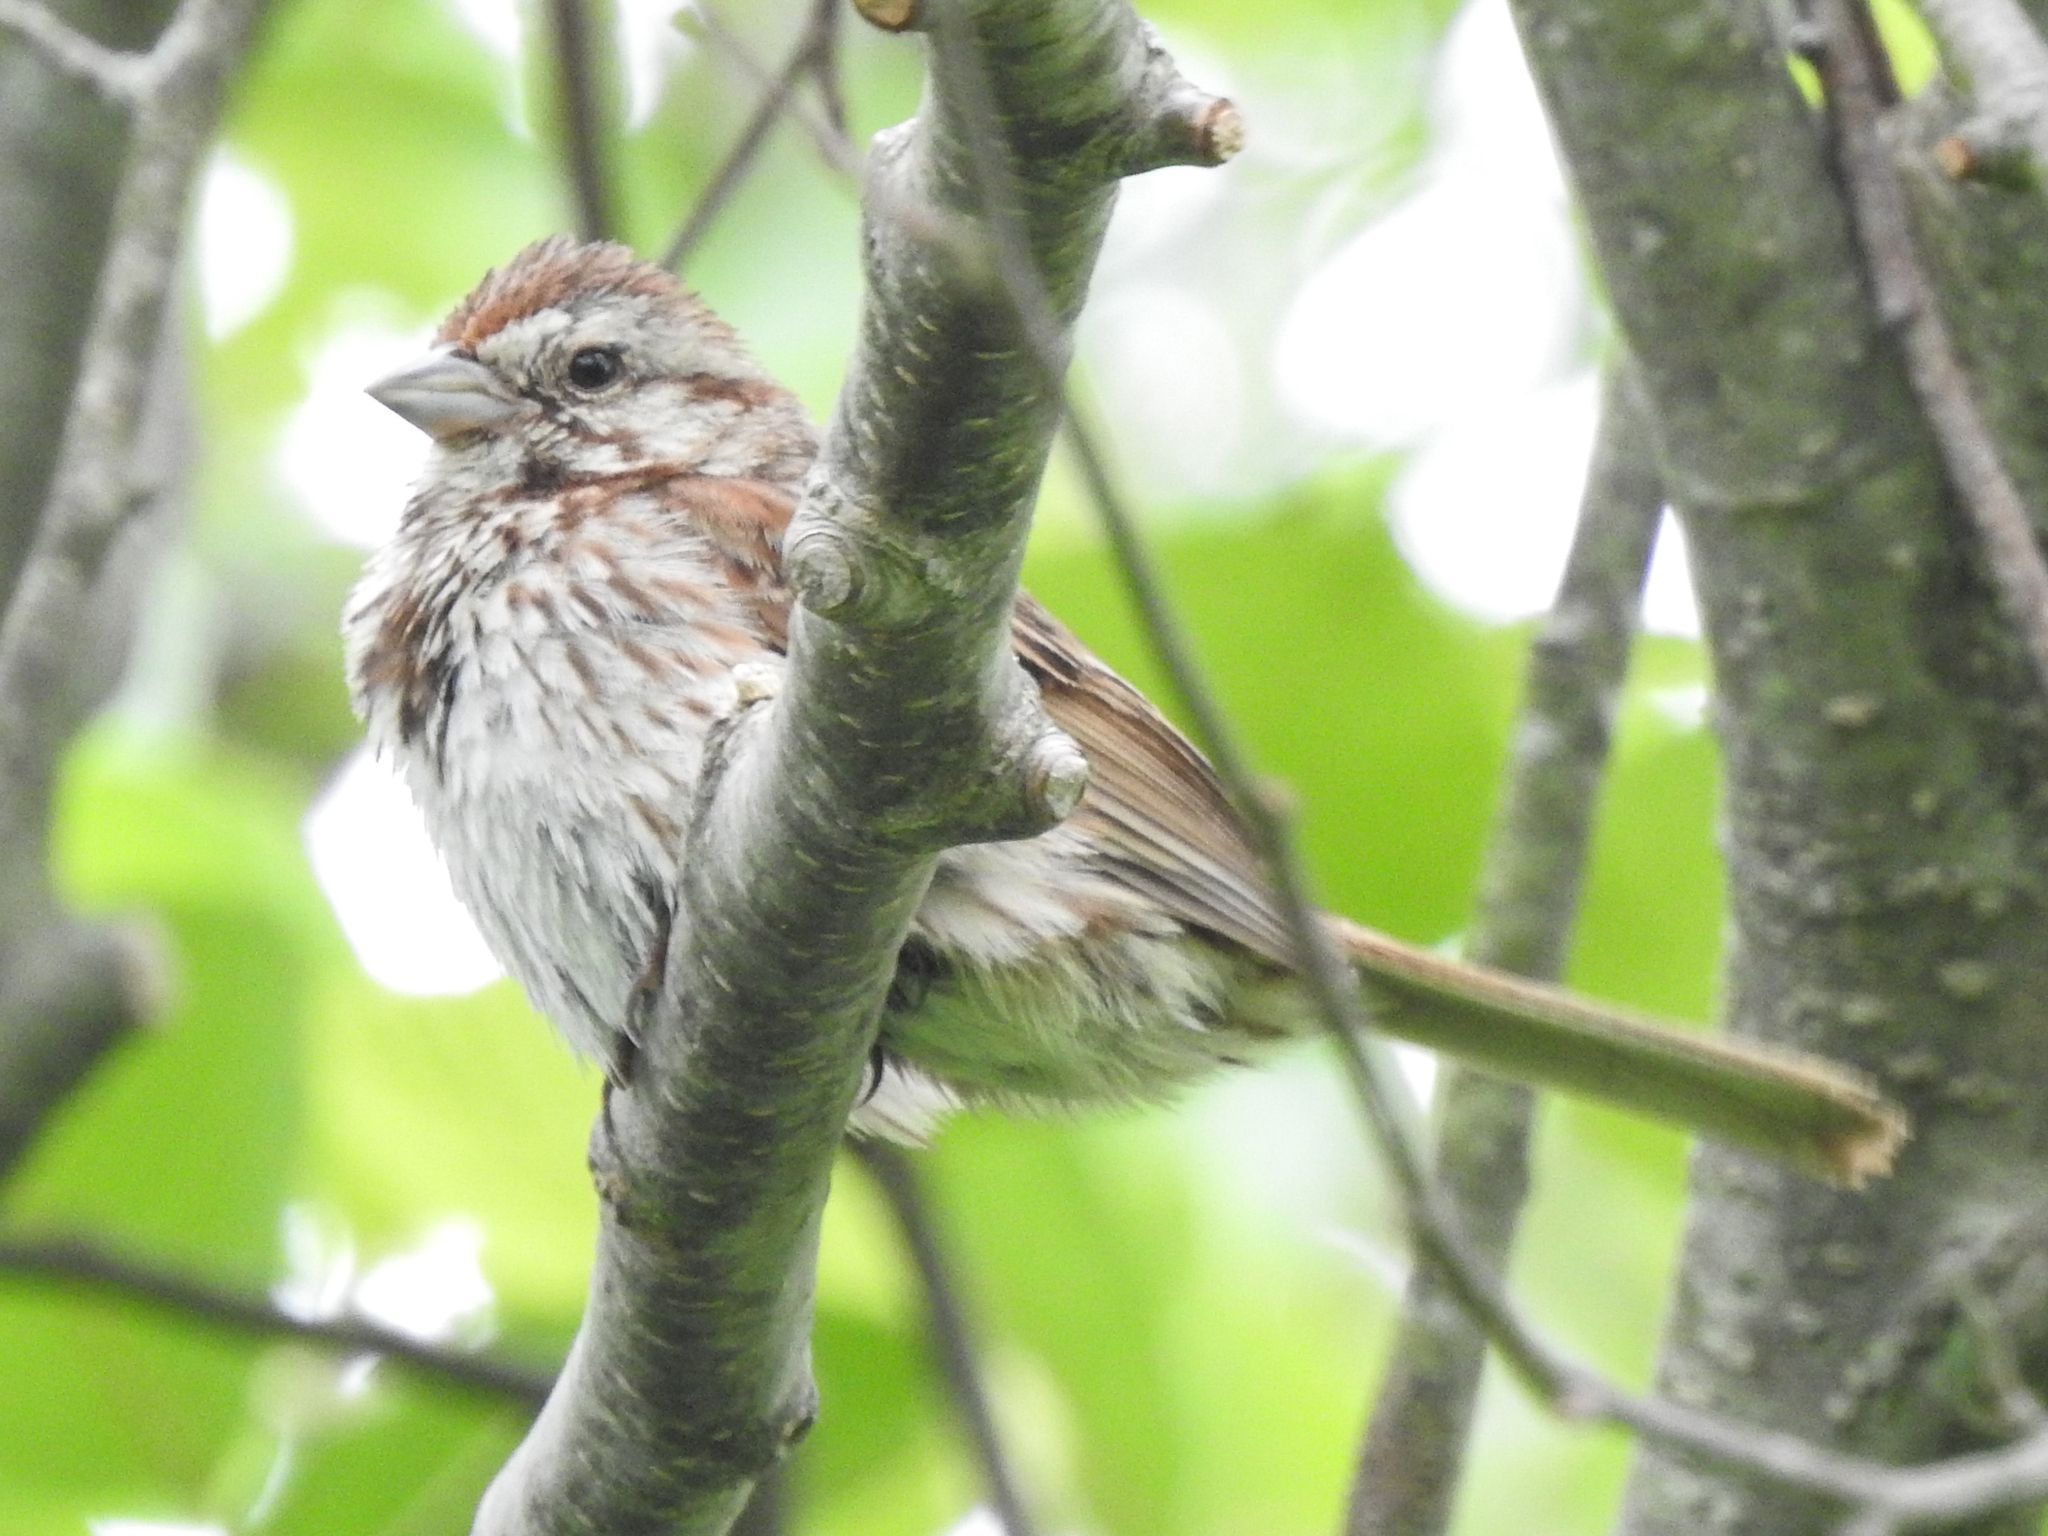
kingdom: Animalia
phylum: Chordata
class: Aves
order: Passeriformes
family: Passerellidae
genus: Melospiza
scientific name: Melospiza melodia
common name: Song sparrow
